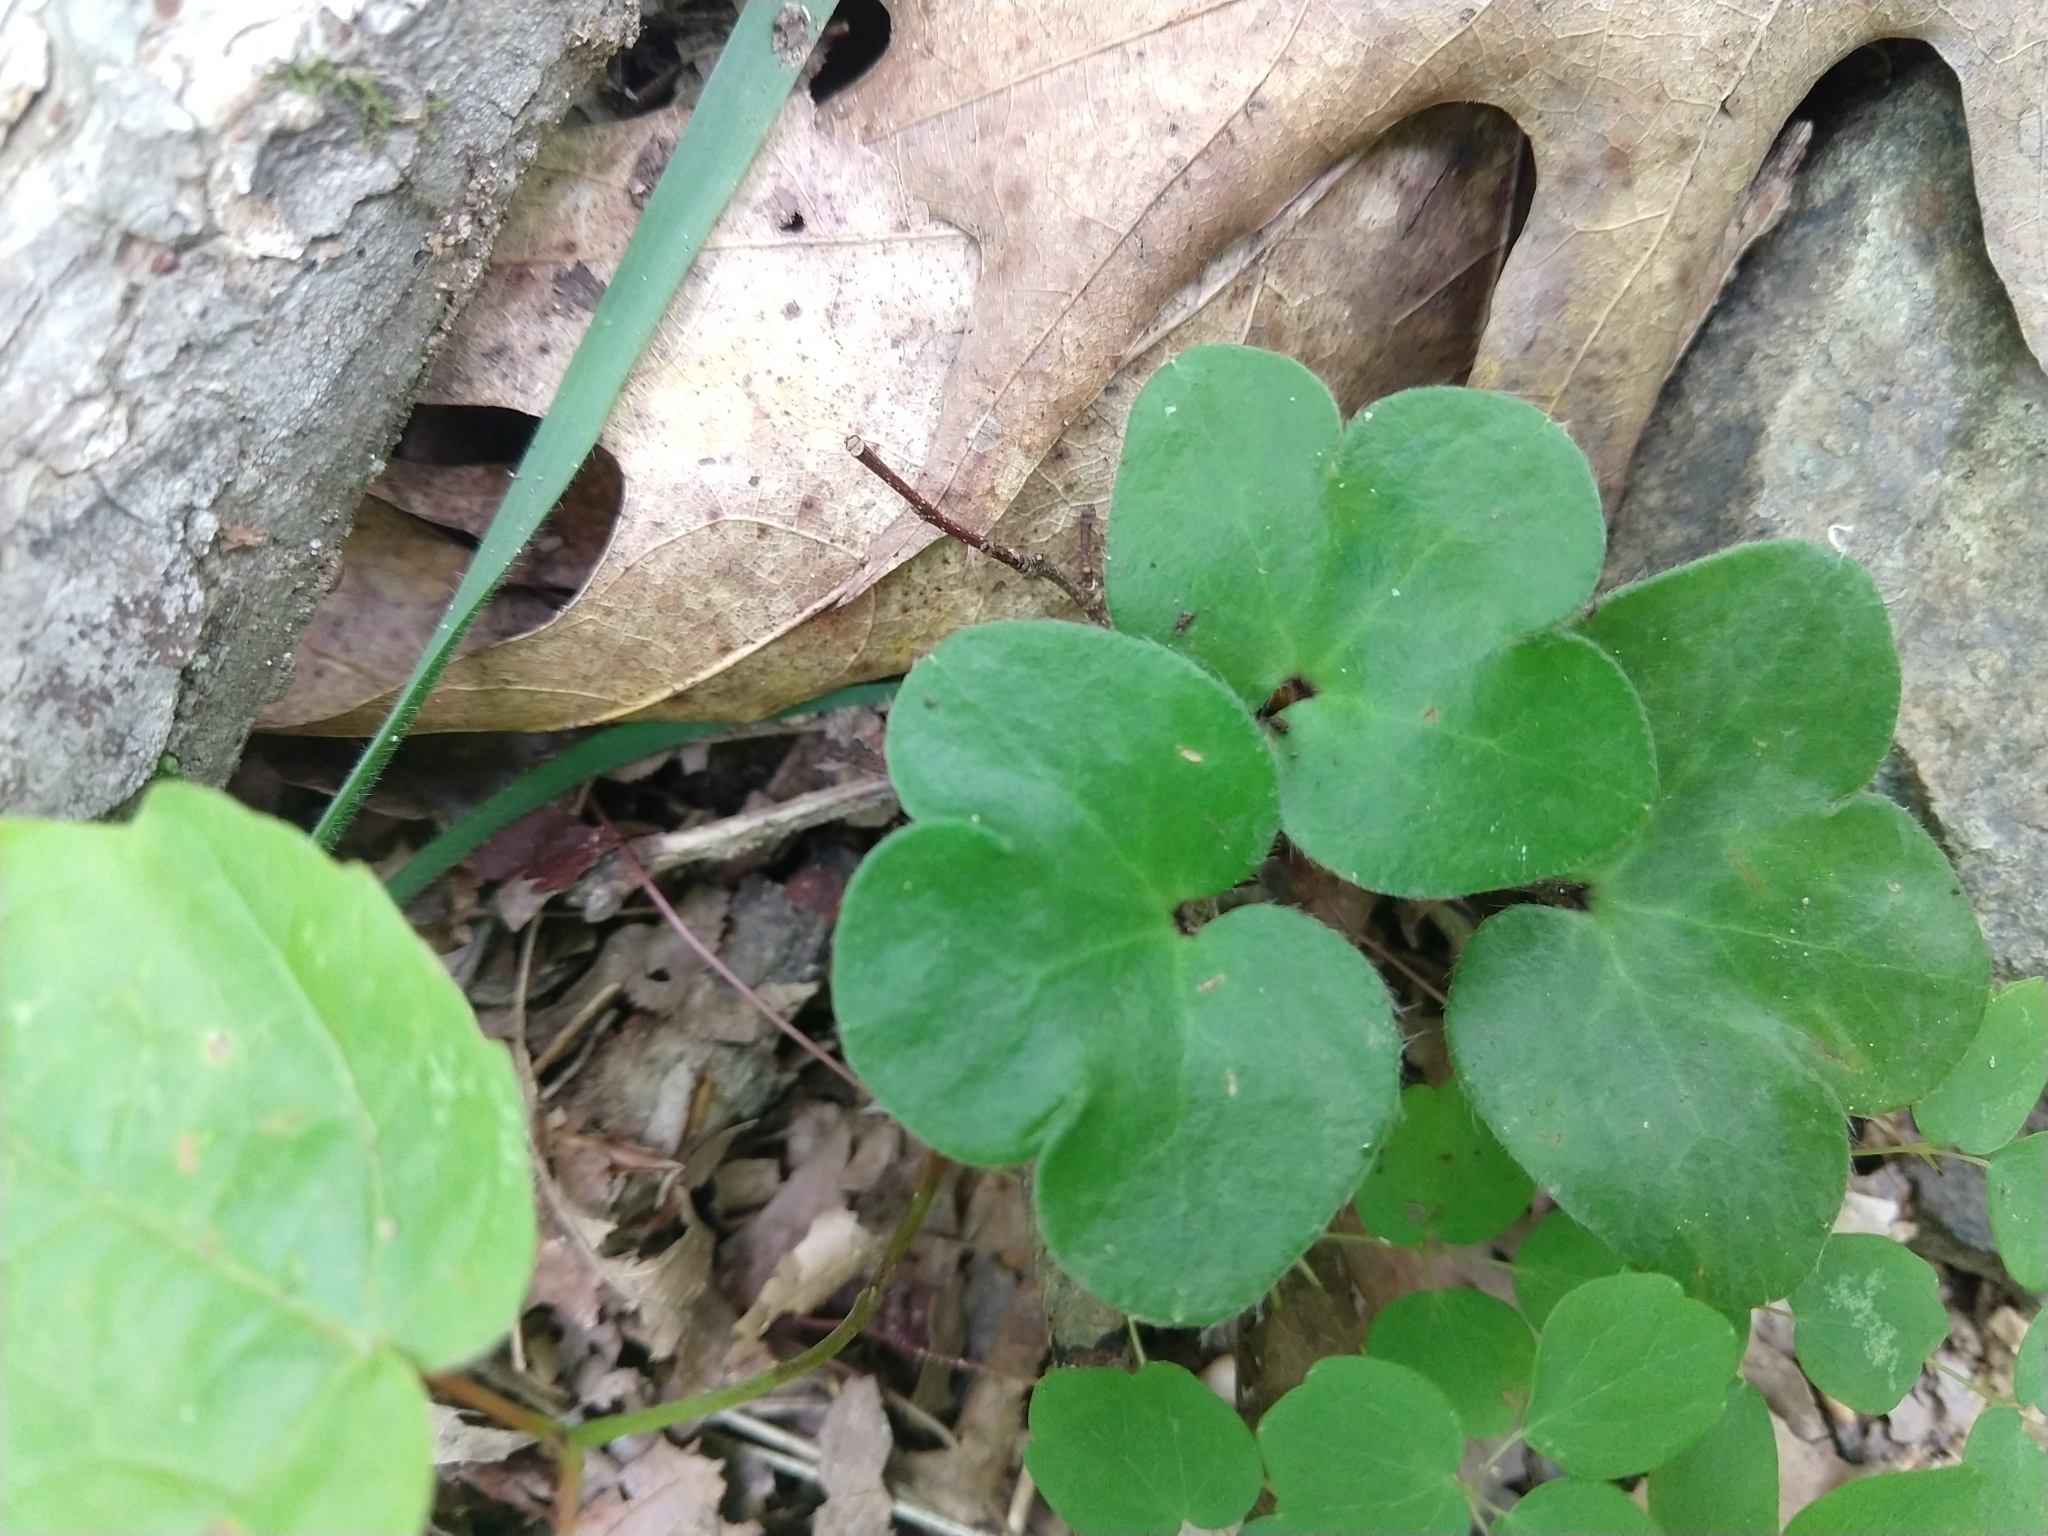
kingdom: Plantae
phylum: Tracheophyta
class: Magnoliopsida
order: Ranunculales
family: Ranunculaceae
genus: Hepatica
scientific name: Hepatica americana
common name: American hepatica
